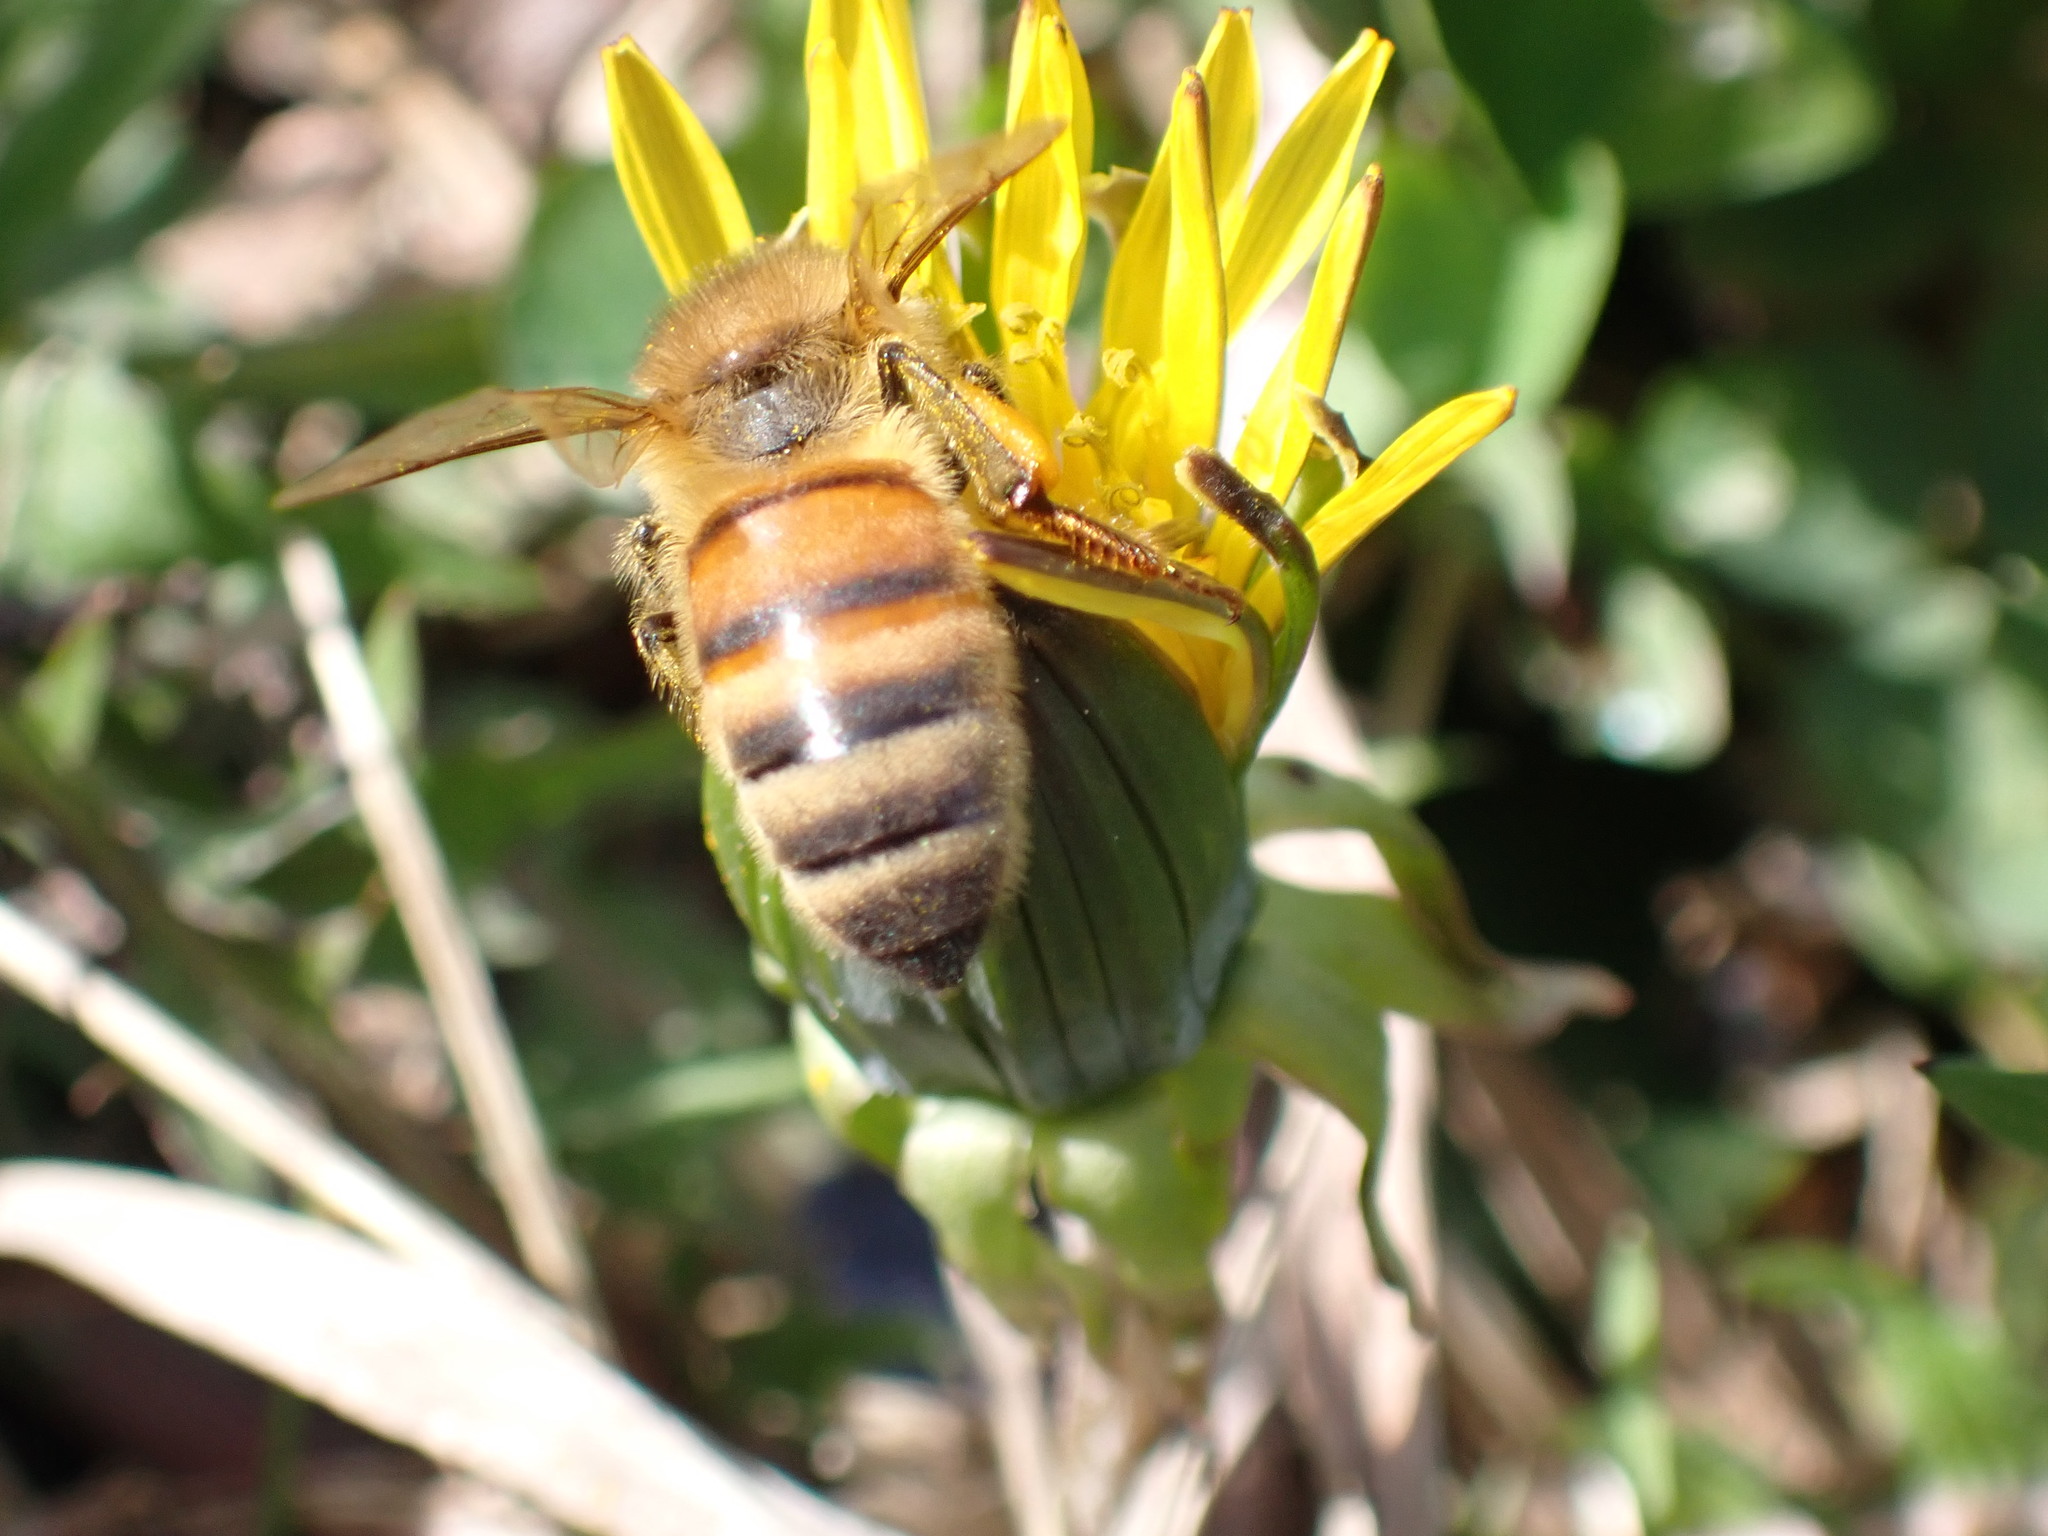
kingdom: Animalia
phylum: Arthropoda
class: Insecta
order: Hymenoptera
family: Apidae
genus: Apis
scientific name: Apis mellifera
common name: Honey bee
